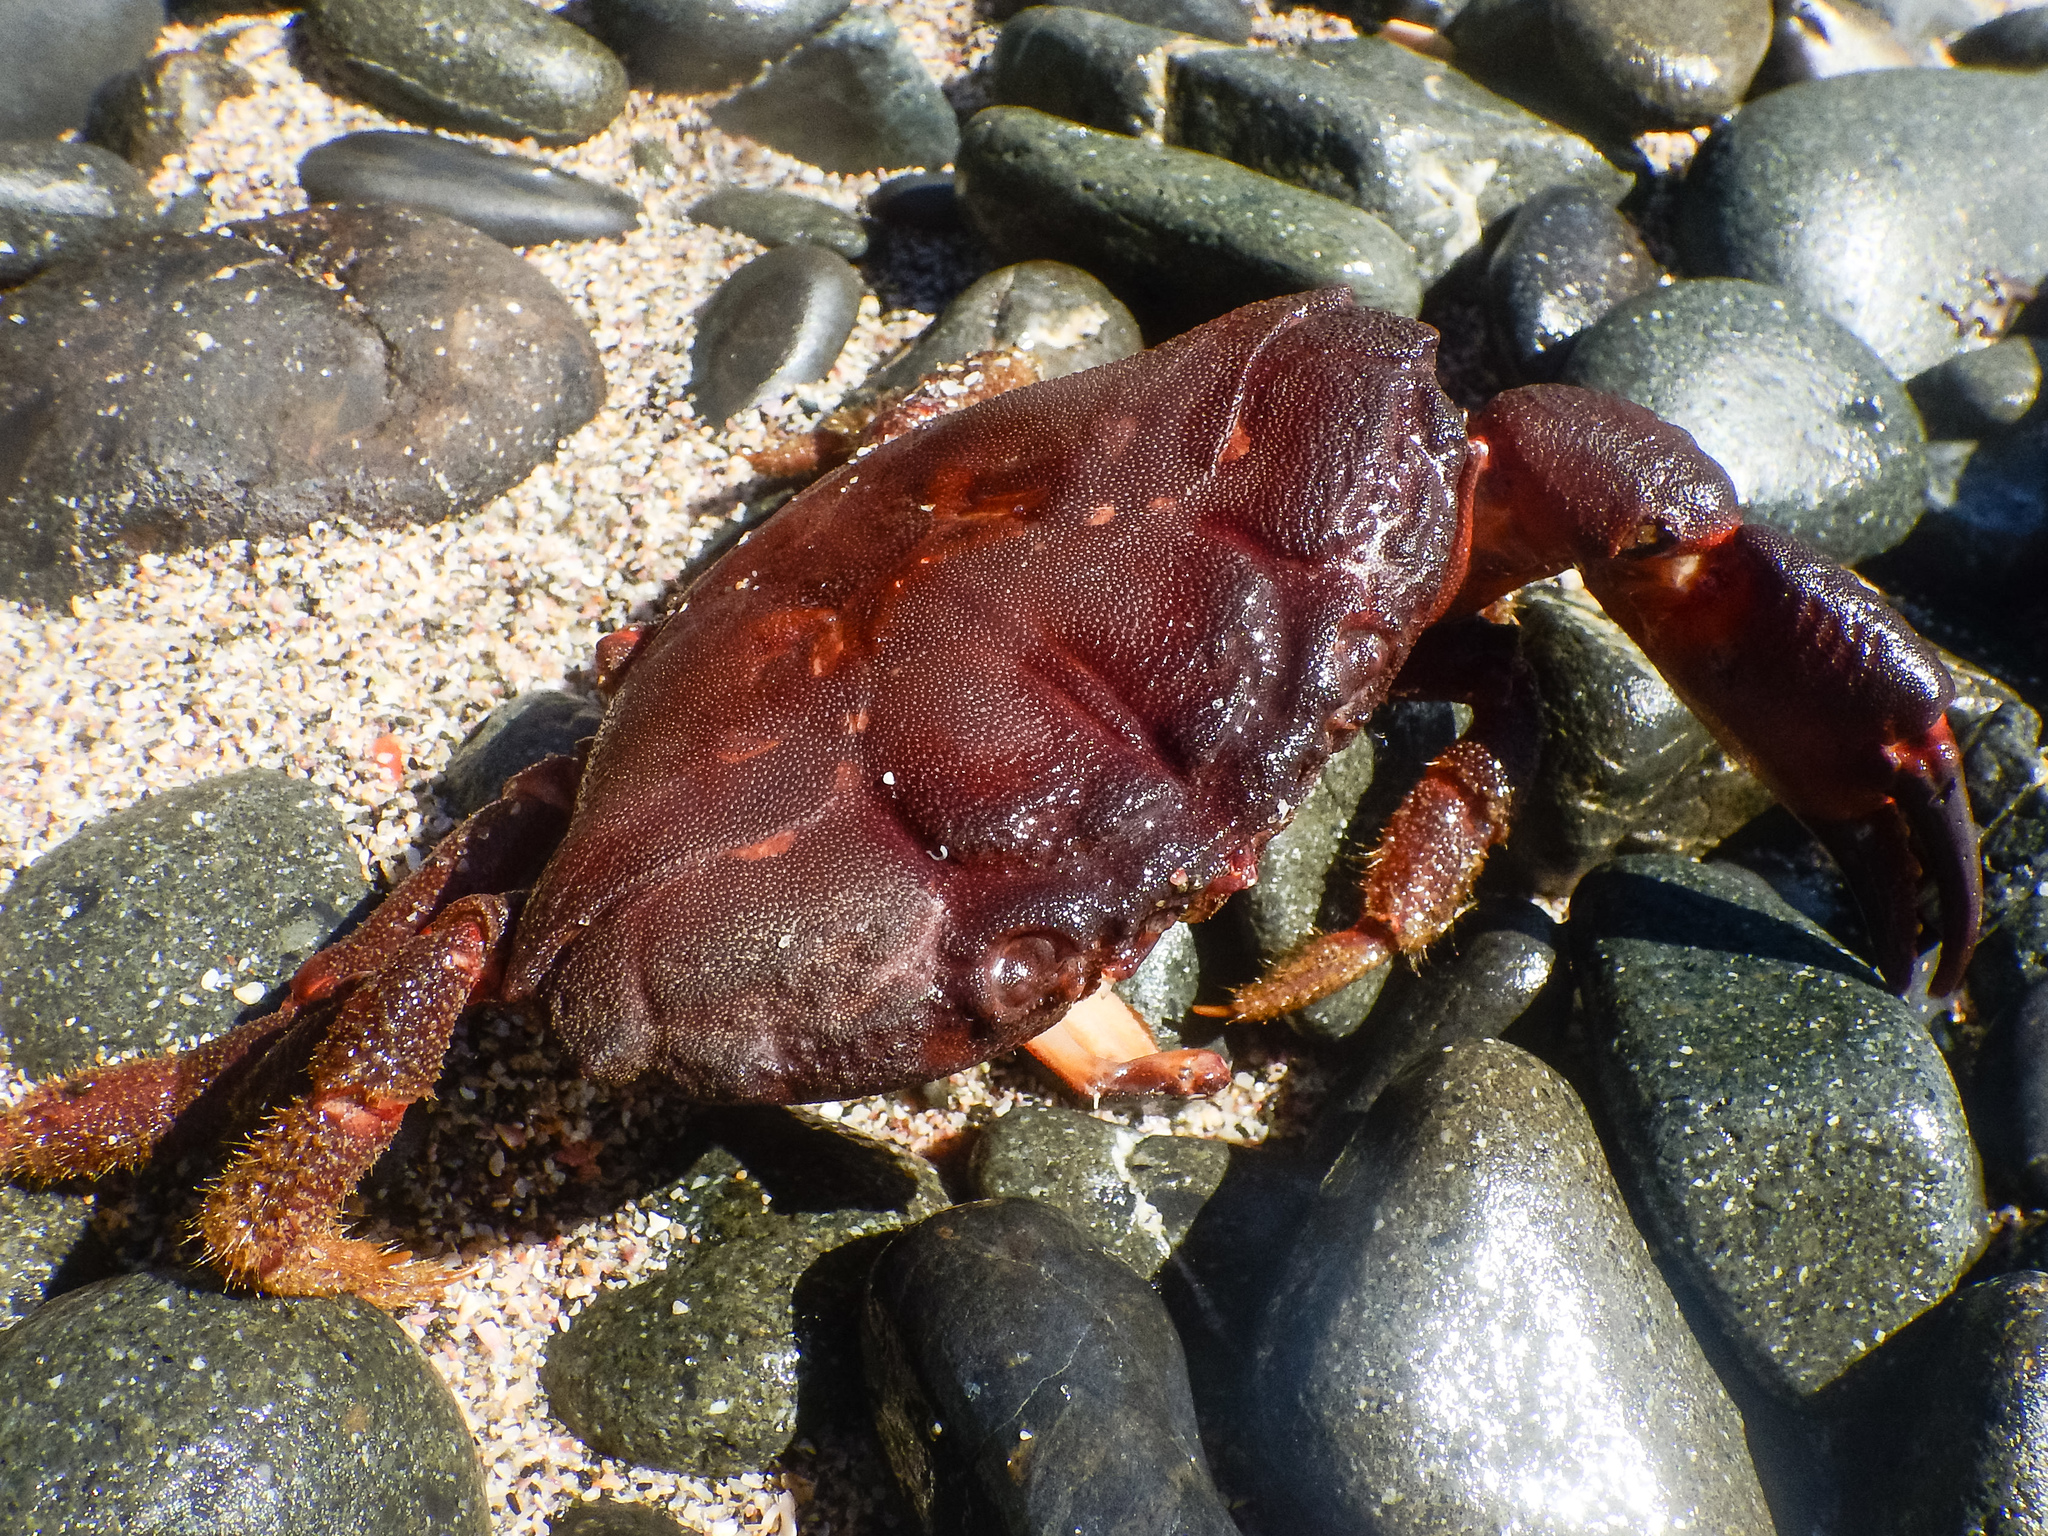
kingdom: Animalia
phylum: Arthropoda
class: Malacostraca
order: Decapoda
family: Oziidae
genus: Ozius
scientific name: Ozius deplanatus
